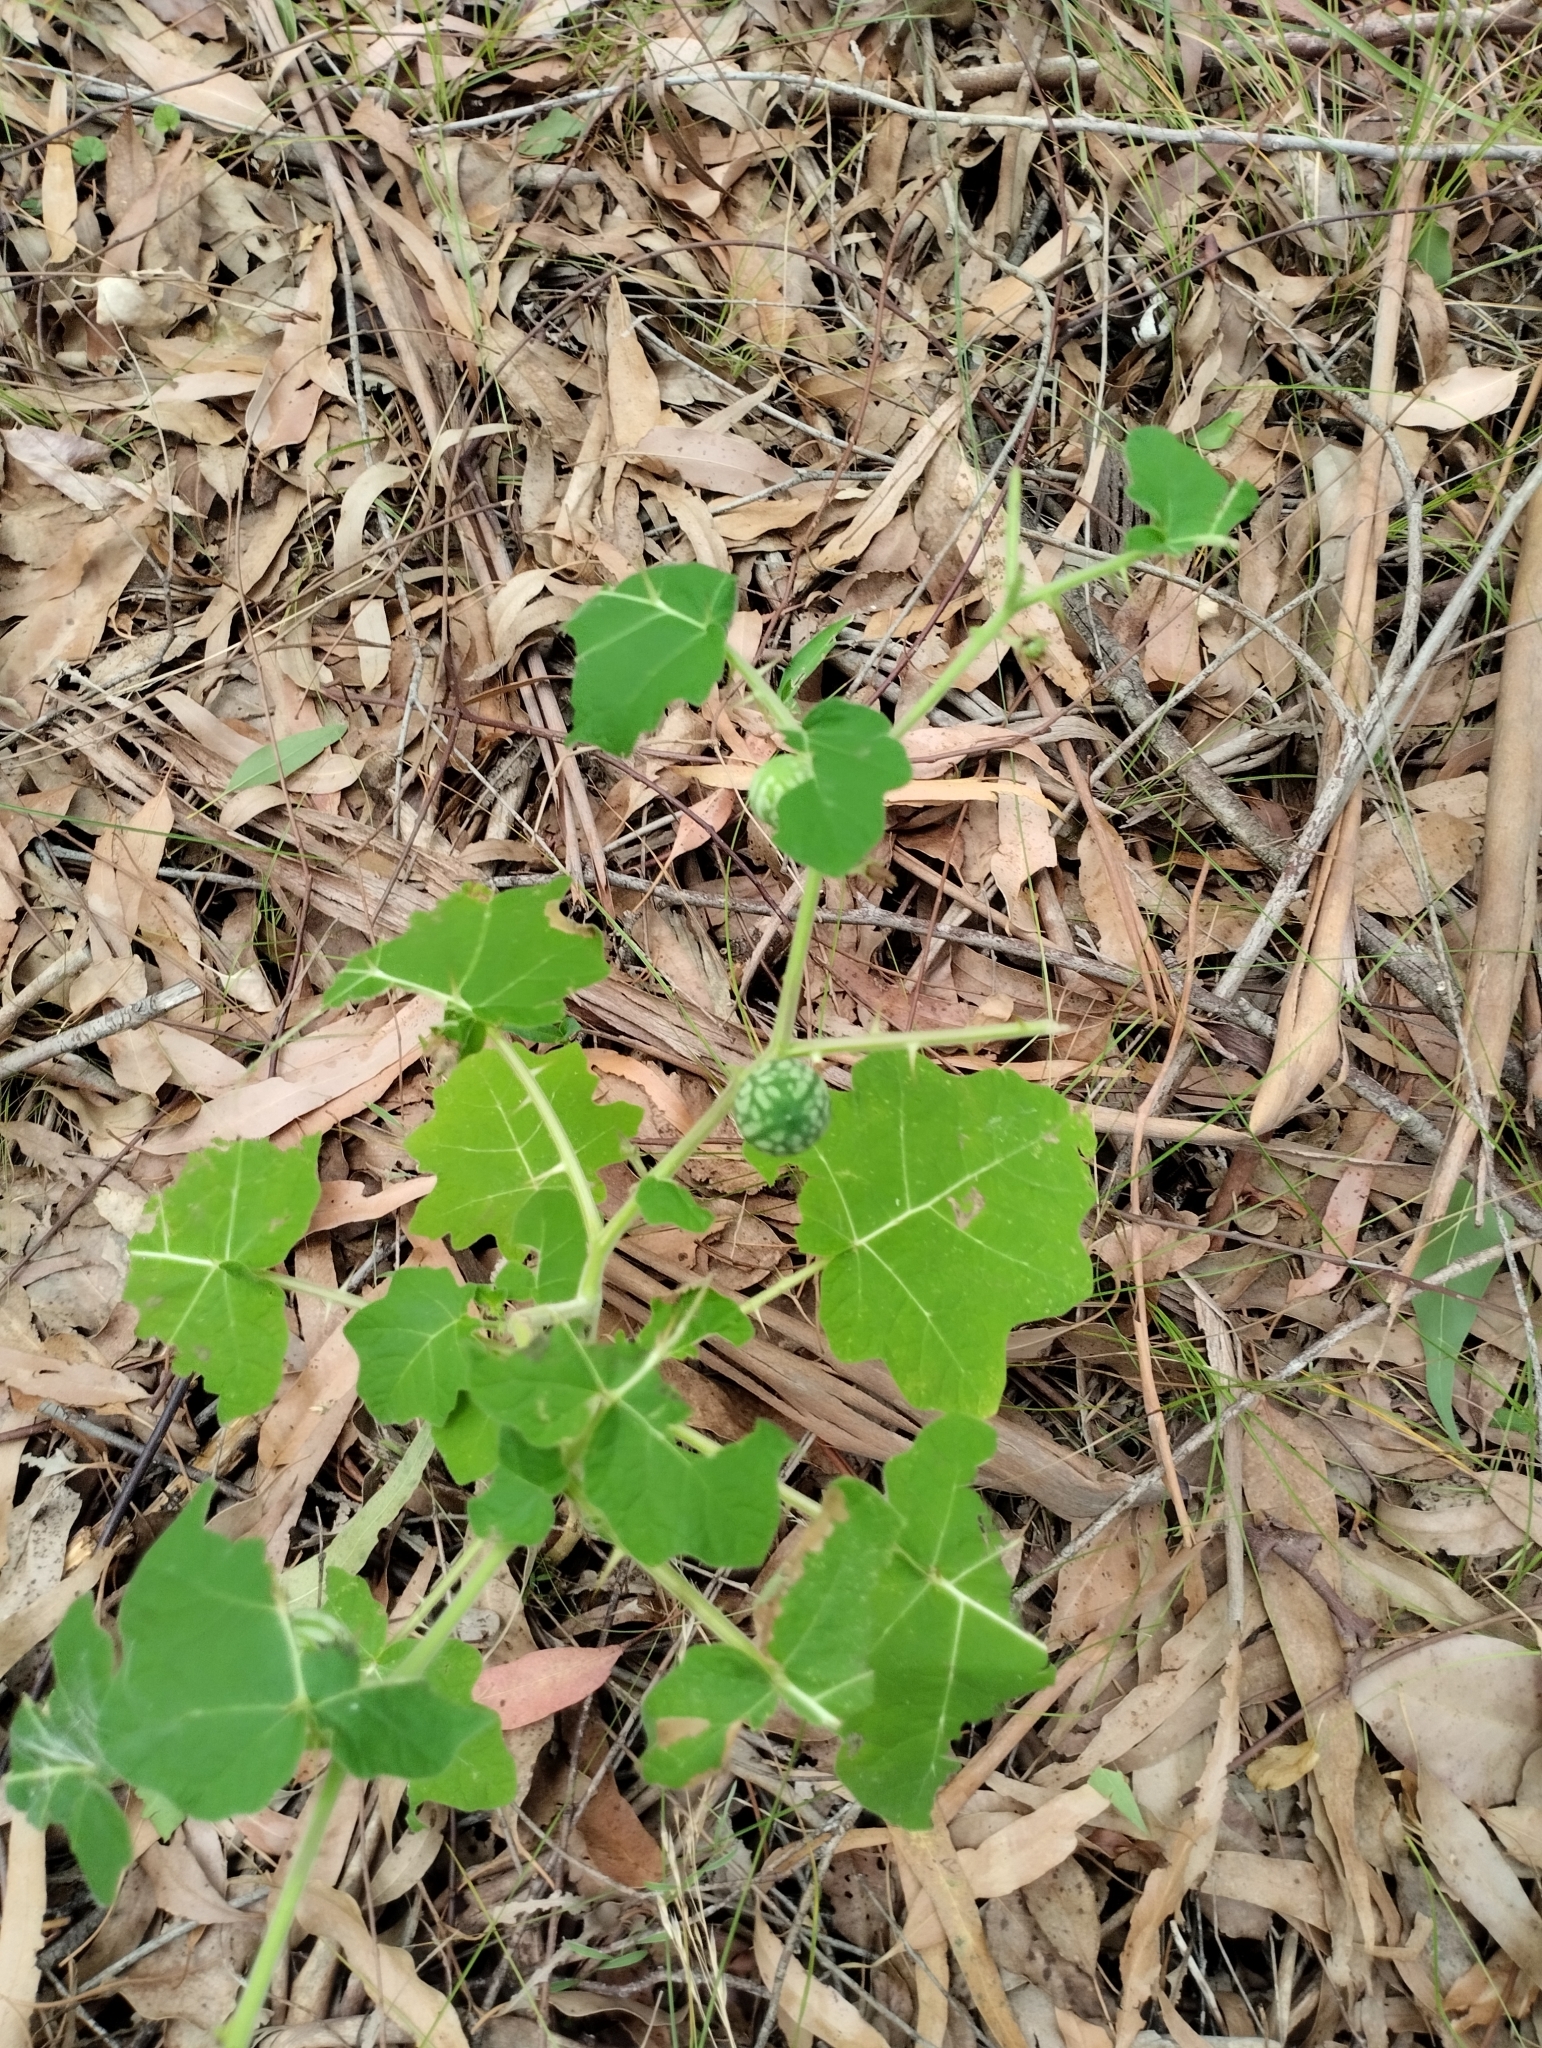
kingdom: Plantae
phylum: Tracheophyta
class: Magnoliopsida
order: Solanales
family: Solanaceae
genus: Solanum
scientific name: Solanum viarum
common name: Tropical soda apple
